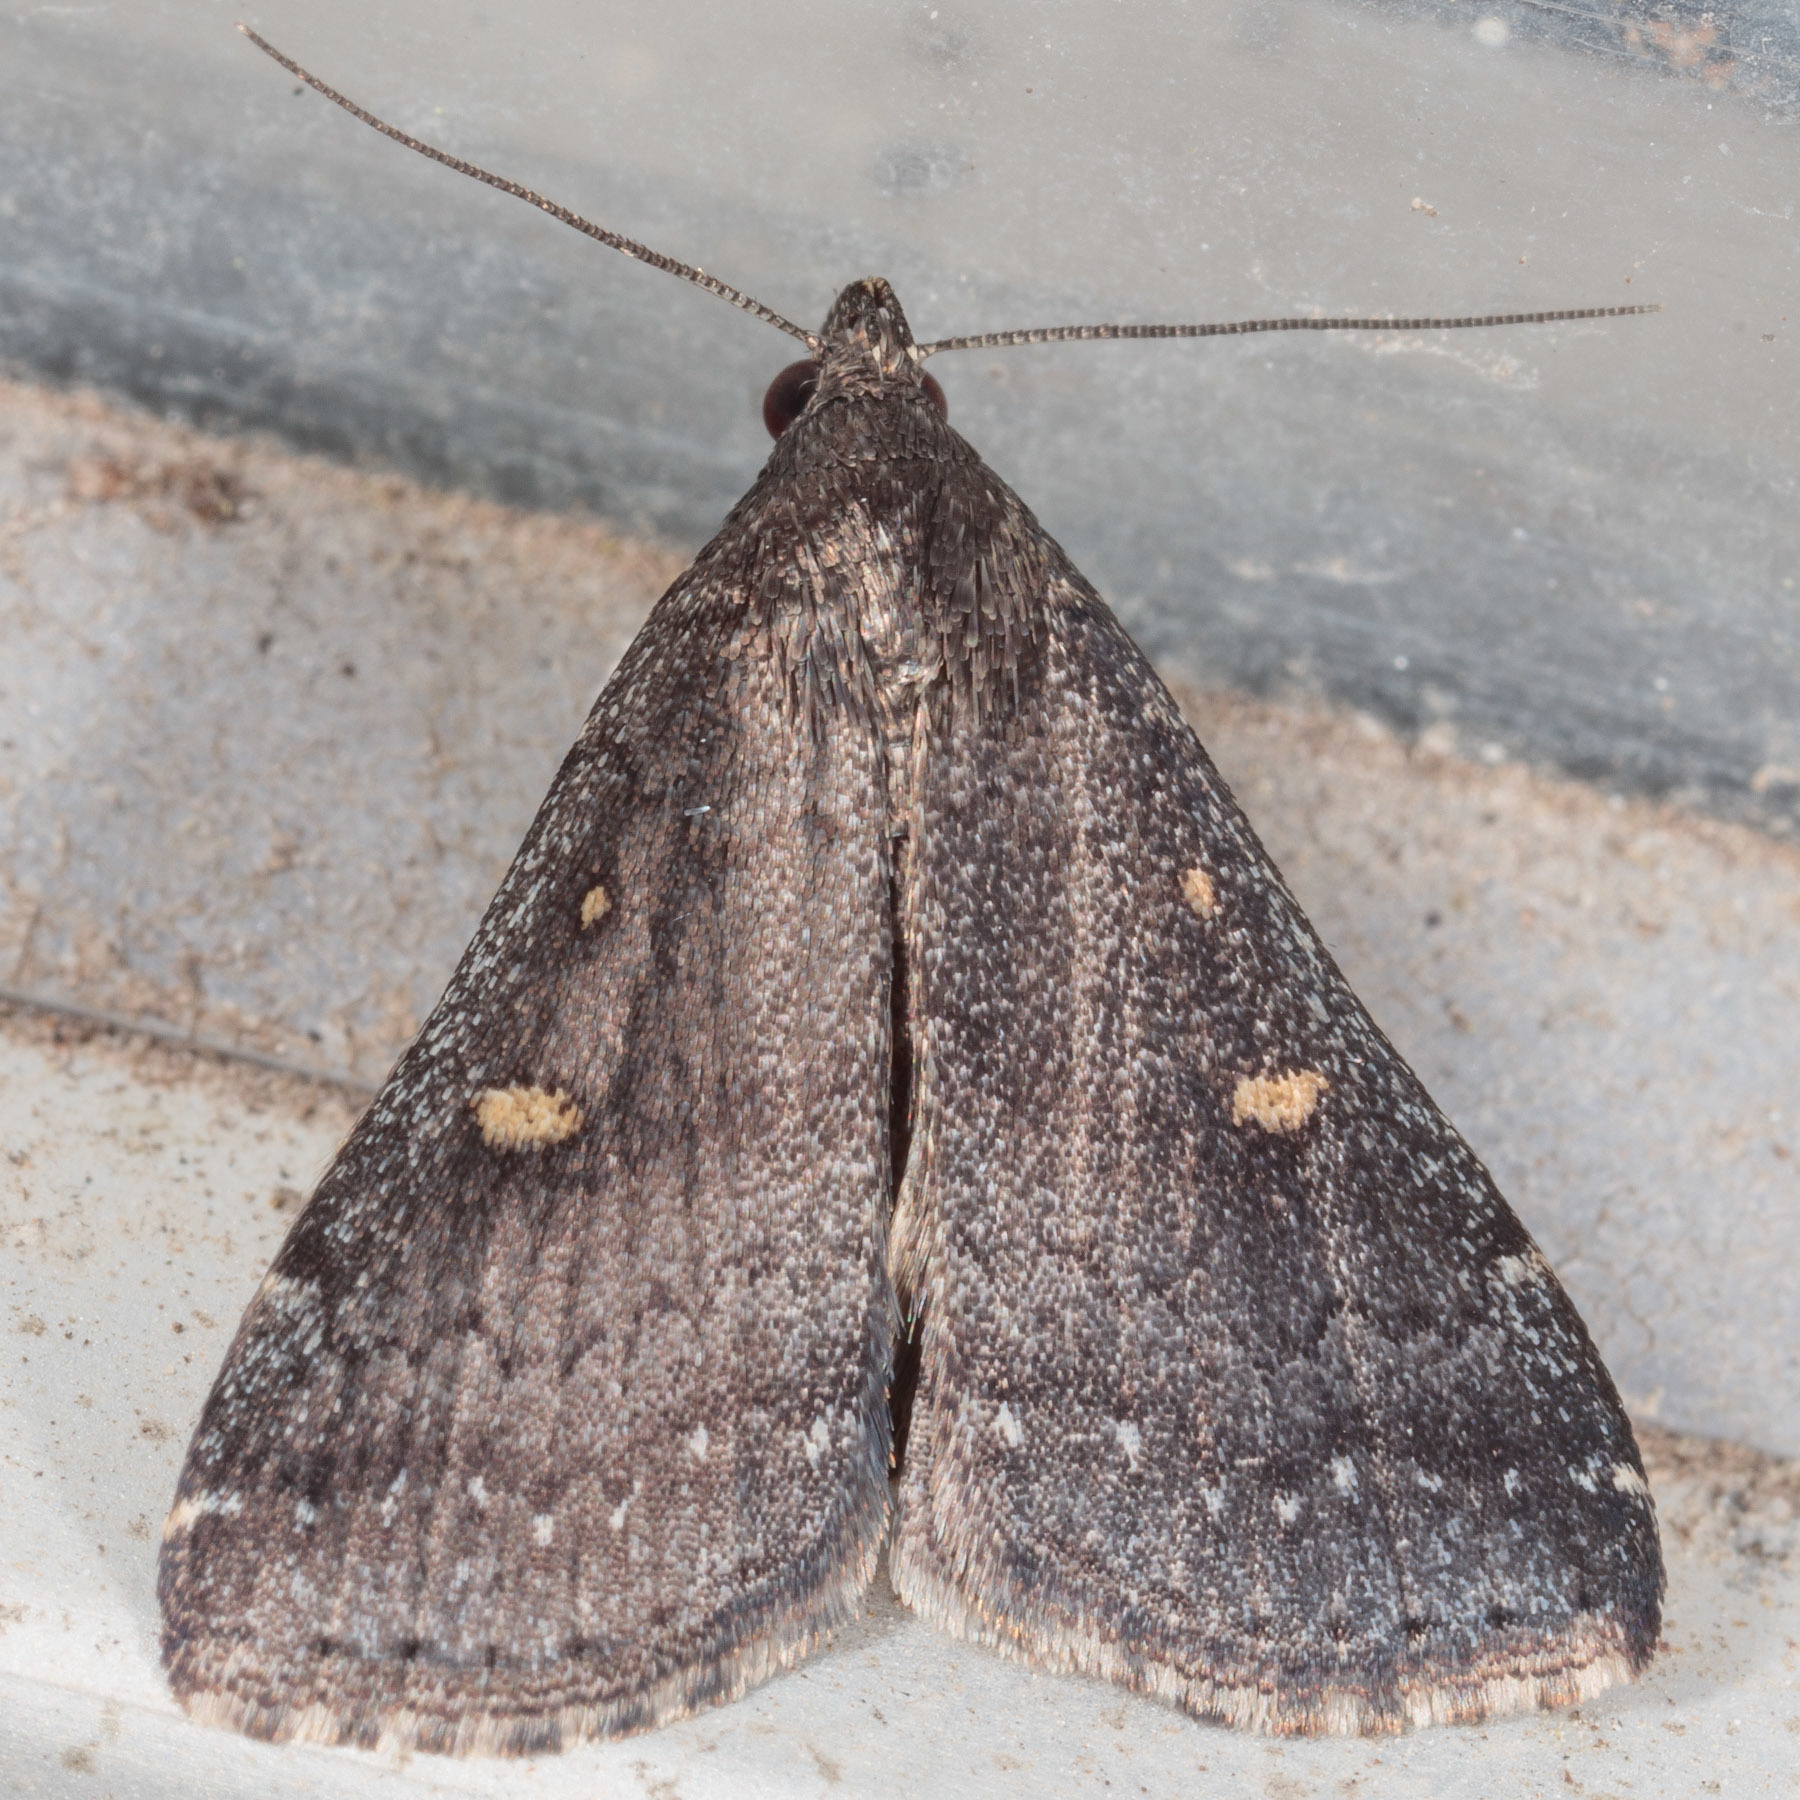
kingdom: Animalia
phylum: Arthropoda
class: Insecta
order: Lepidoptera
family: Erebidae
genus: Tetanolita
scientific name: Tetanolita mynesalis
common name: Smoky tetanolita moth
